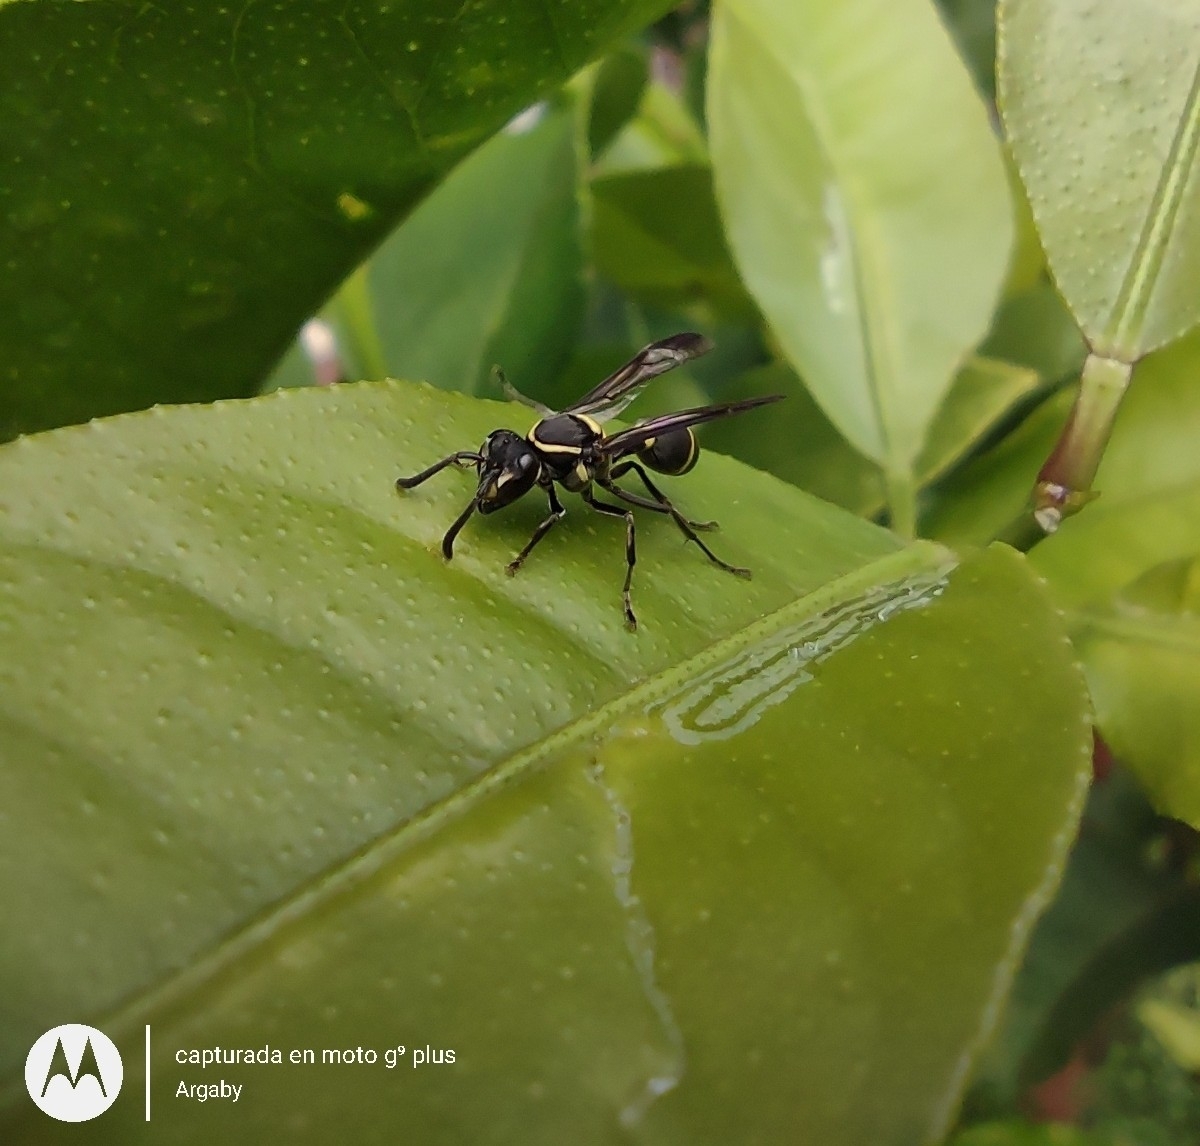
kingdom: Animalia
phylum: Arthropoda
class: Insecta
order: Hymenoptera
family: Eumenidae
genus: Polybia
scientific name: Polybia occidentalis
